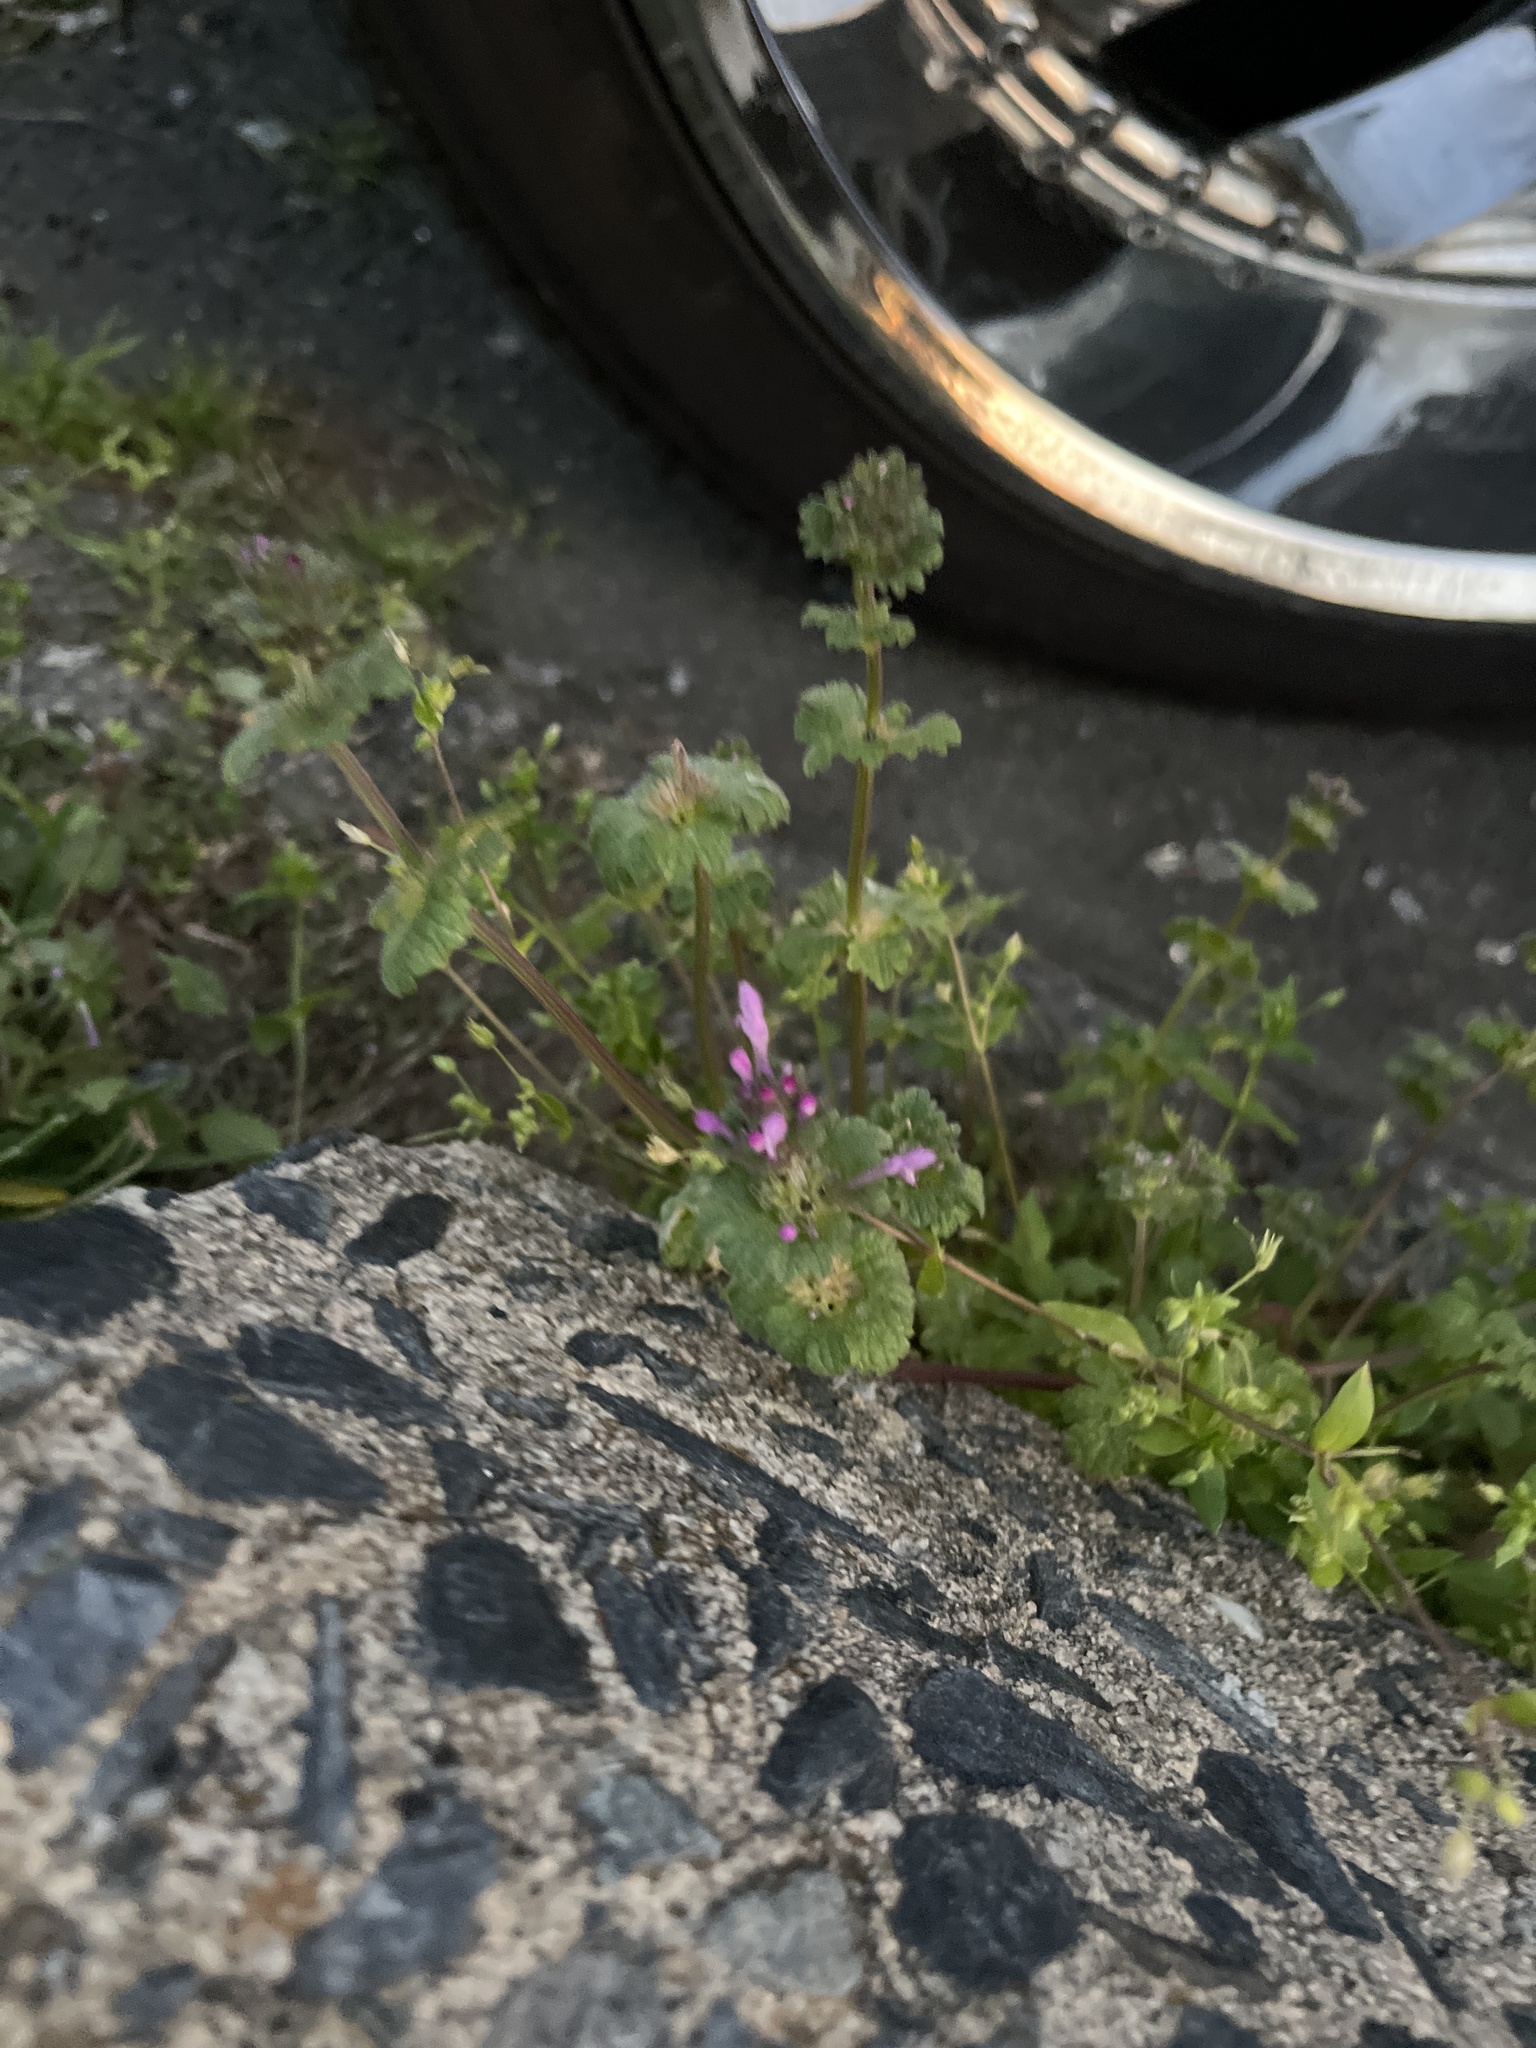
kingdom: Plantae
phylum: Tracheophyta
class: Magnoliopsida
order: Lamiales
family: Lamiaceae
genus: Lamium
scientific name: Lamium amplexicaule
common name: Henbit dead-nettle
